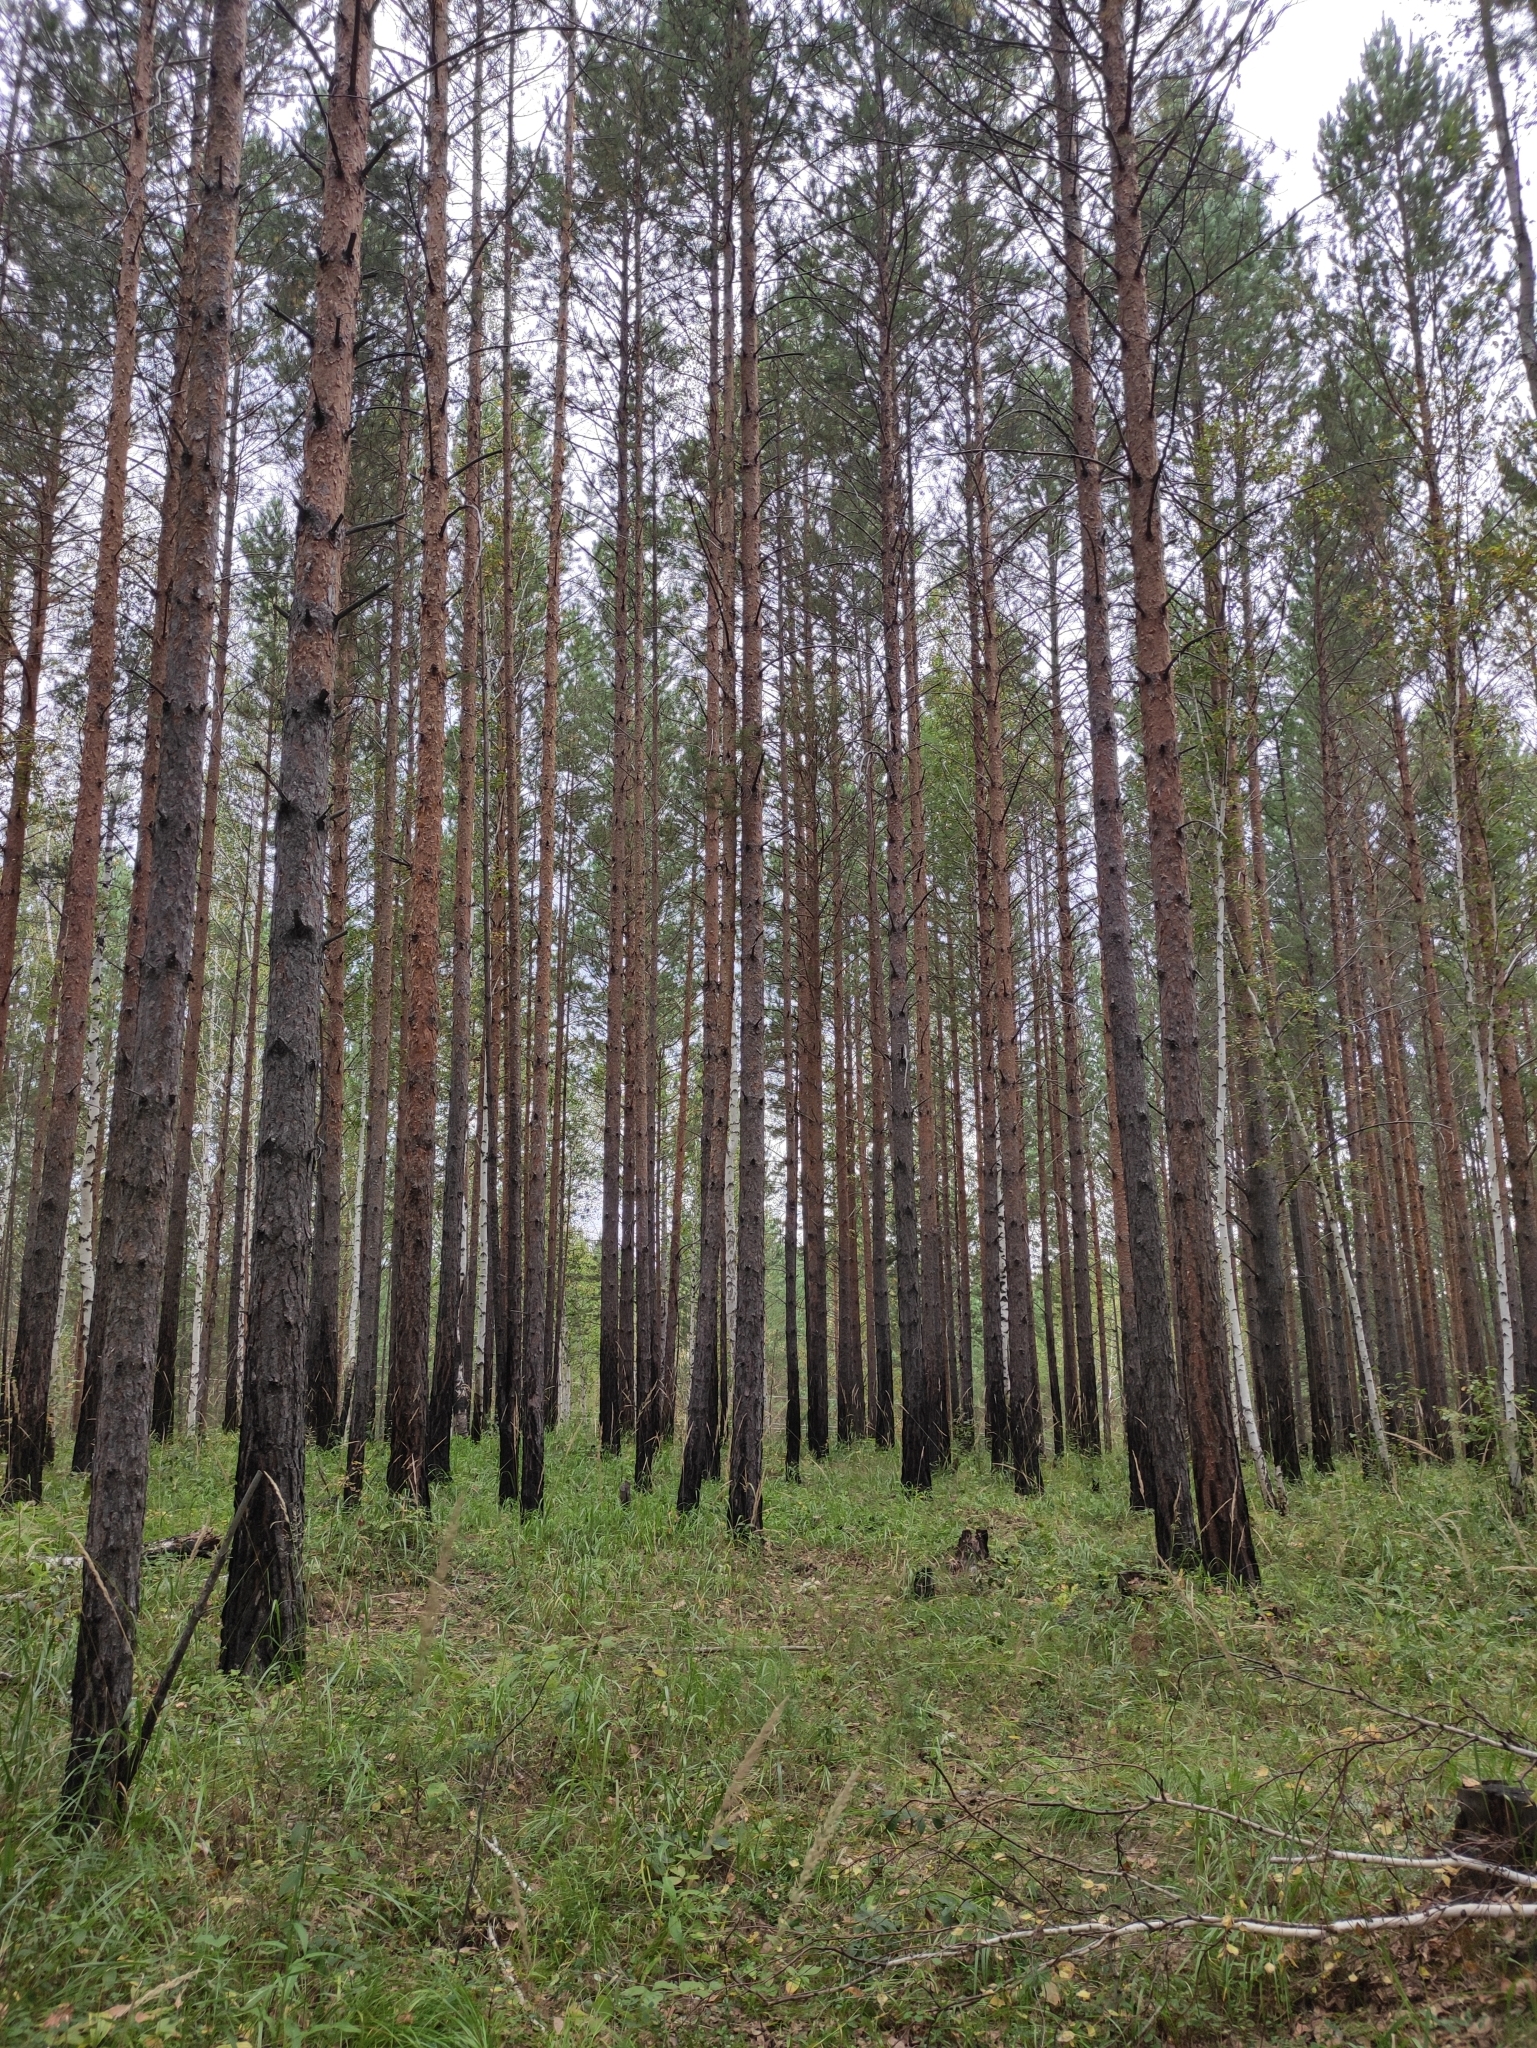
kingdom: Plantae
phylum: Tracheophyta
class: Pinopsida
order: Pinales
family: Pinaceae
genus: Pinus
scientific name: Pinus sylvestris
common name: Scots pine
